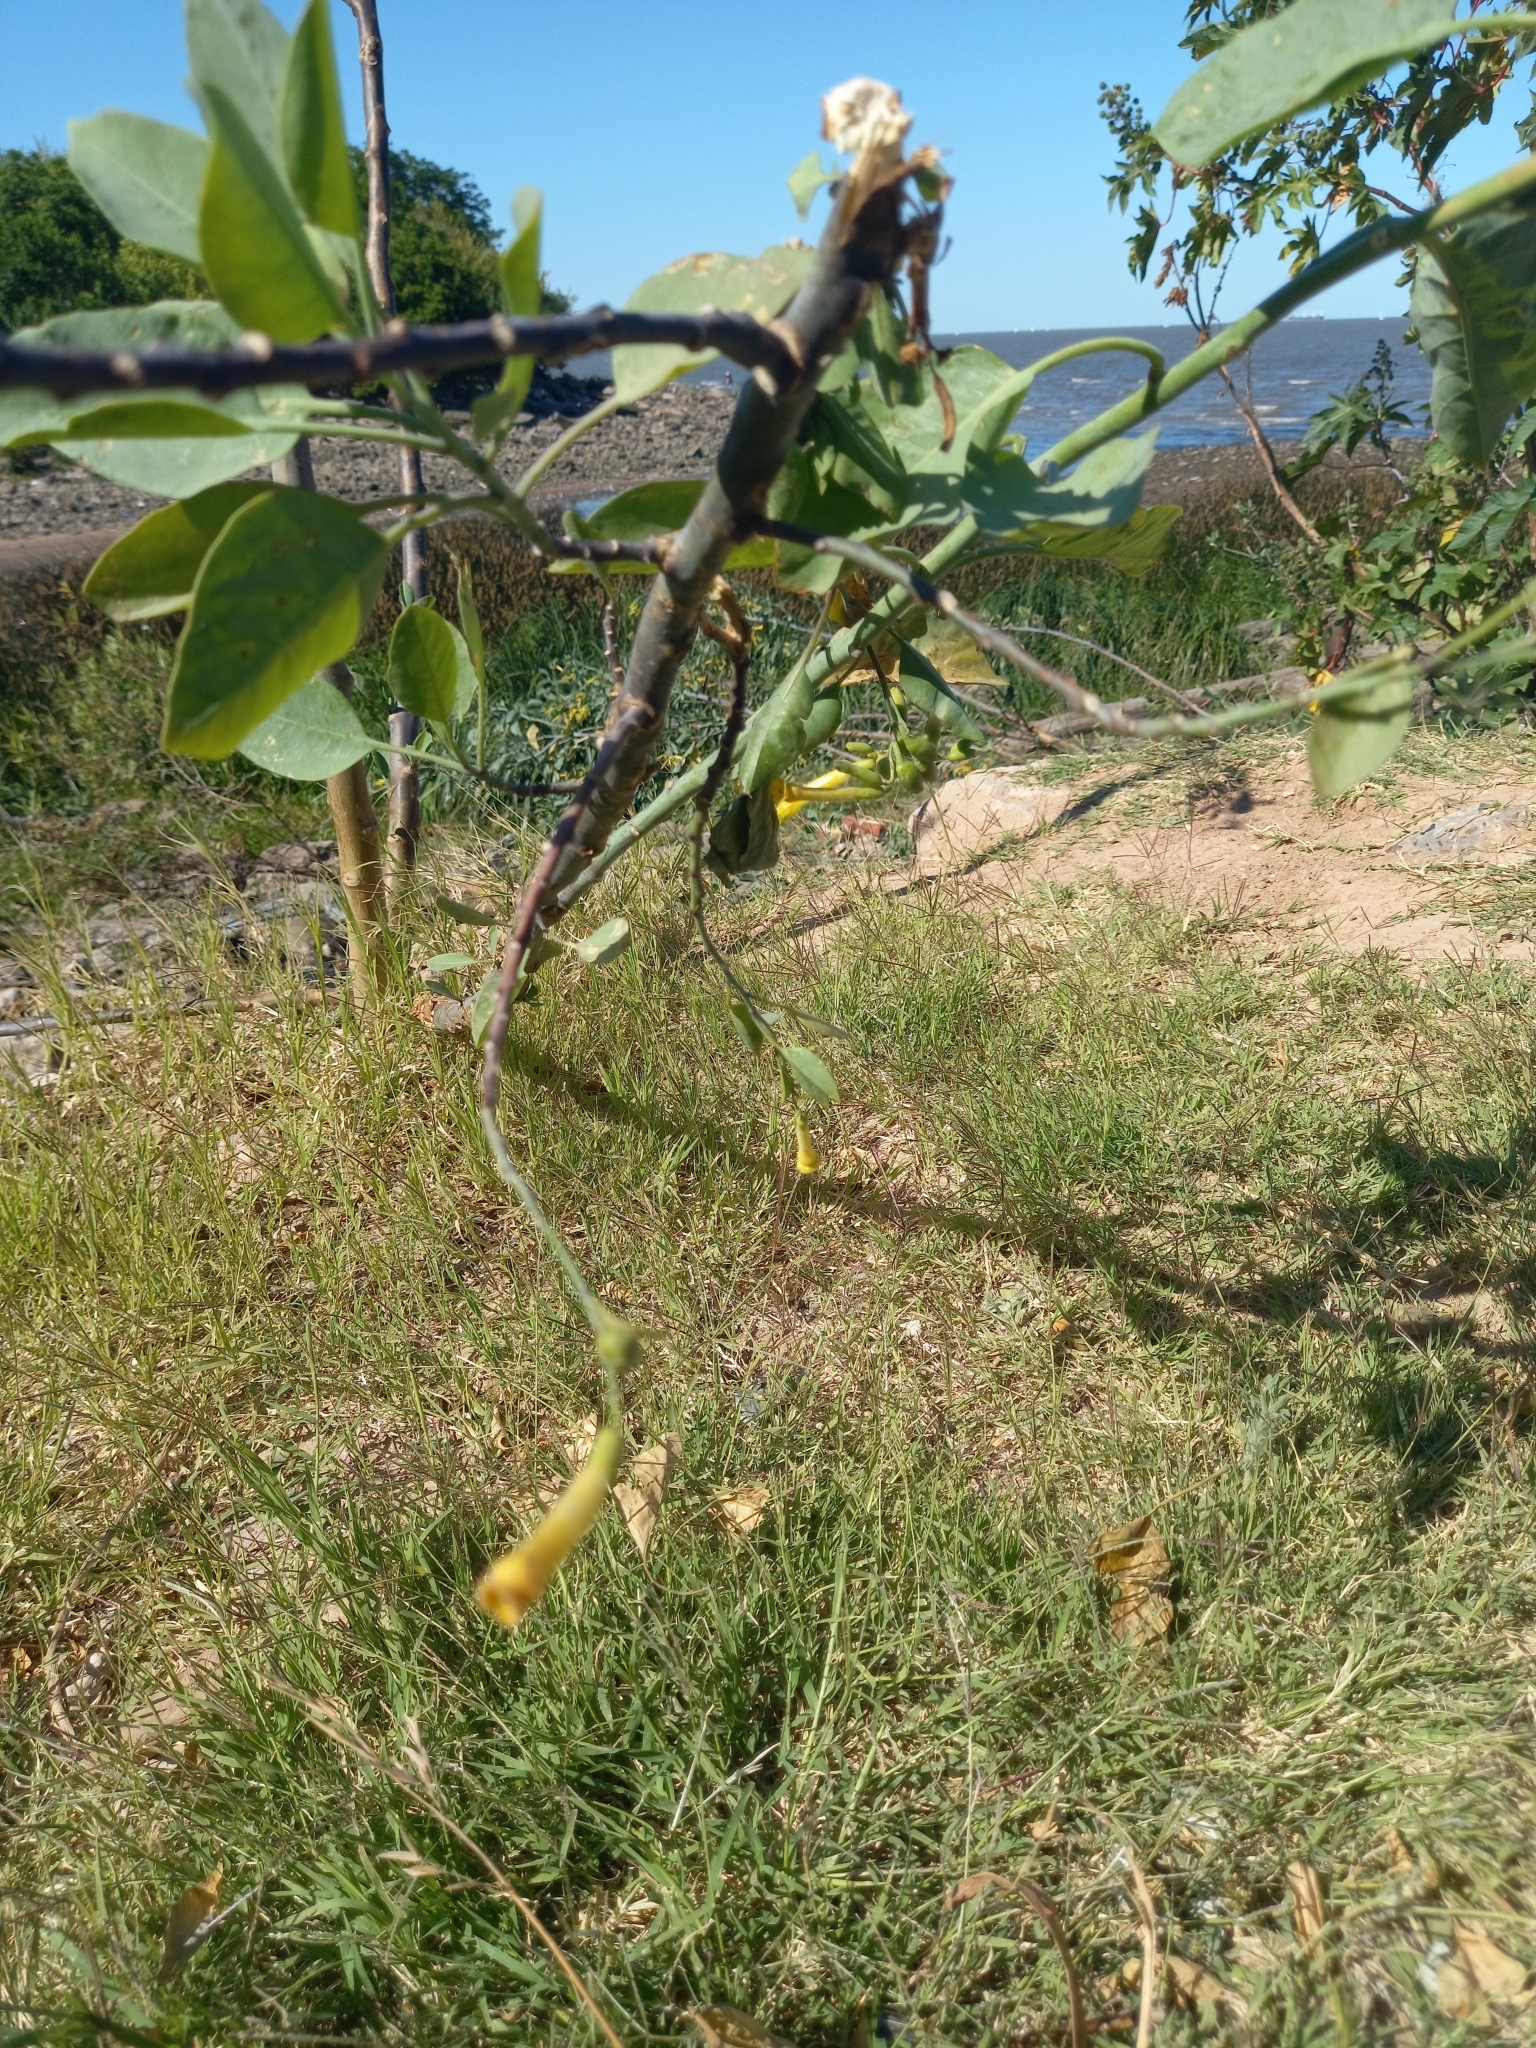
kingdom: Plantae
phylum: Tracheophyta
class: Magnoliopsida
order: Solanales
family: Solanaceae
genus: Nicotiana
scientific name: Nicotiana glauca
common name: Tree tobacco
